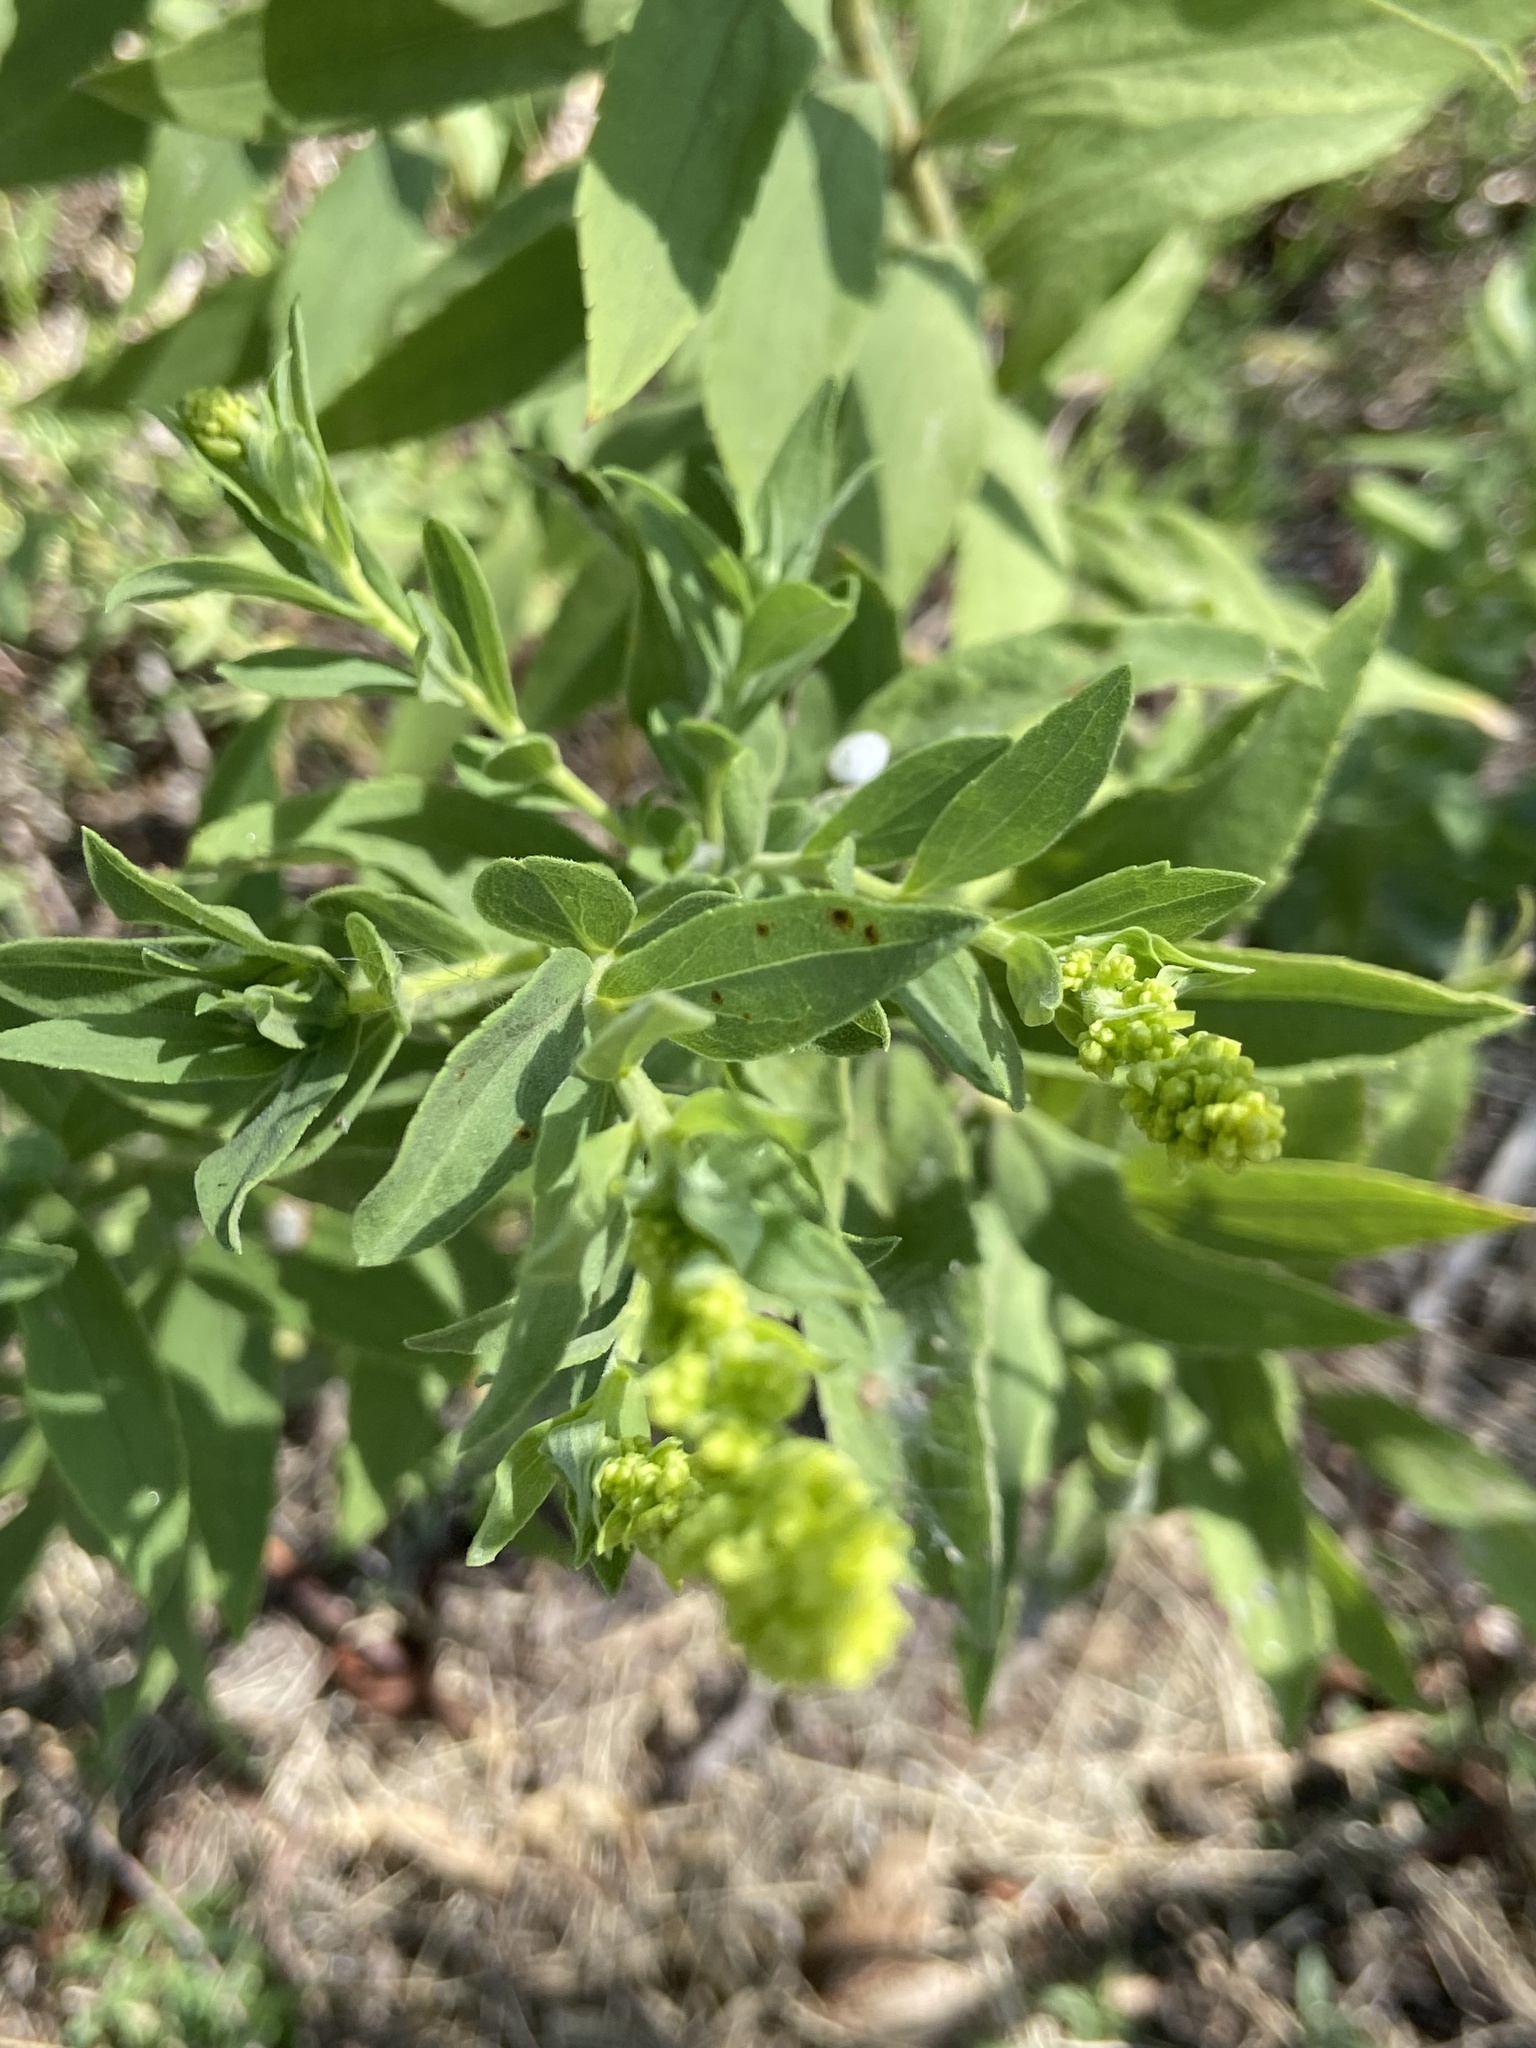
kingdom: Animalia
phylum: Arthropoda
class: Insecta
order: Diptera
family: Cecidomyiidae
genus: Asteromyia
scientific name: Asteromyia carbonifera
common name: Carbonifera goldenrod gall midge
